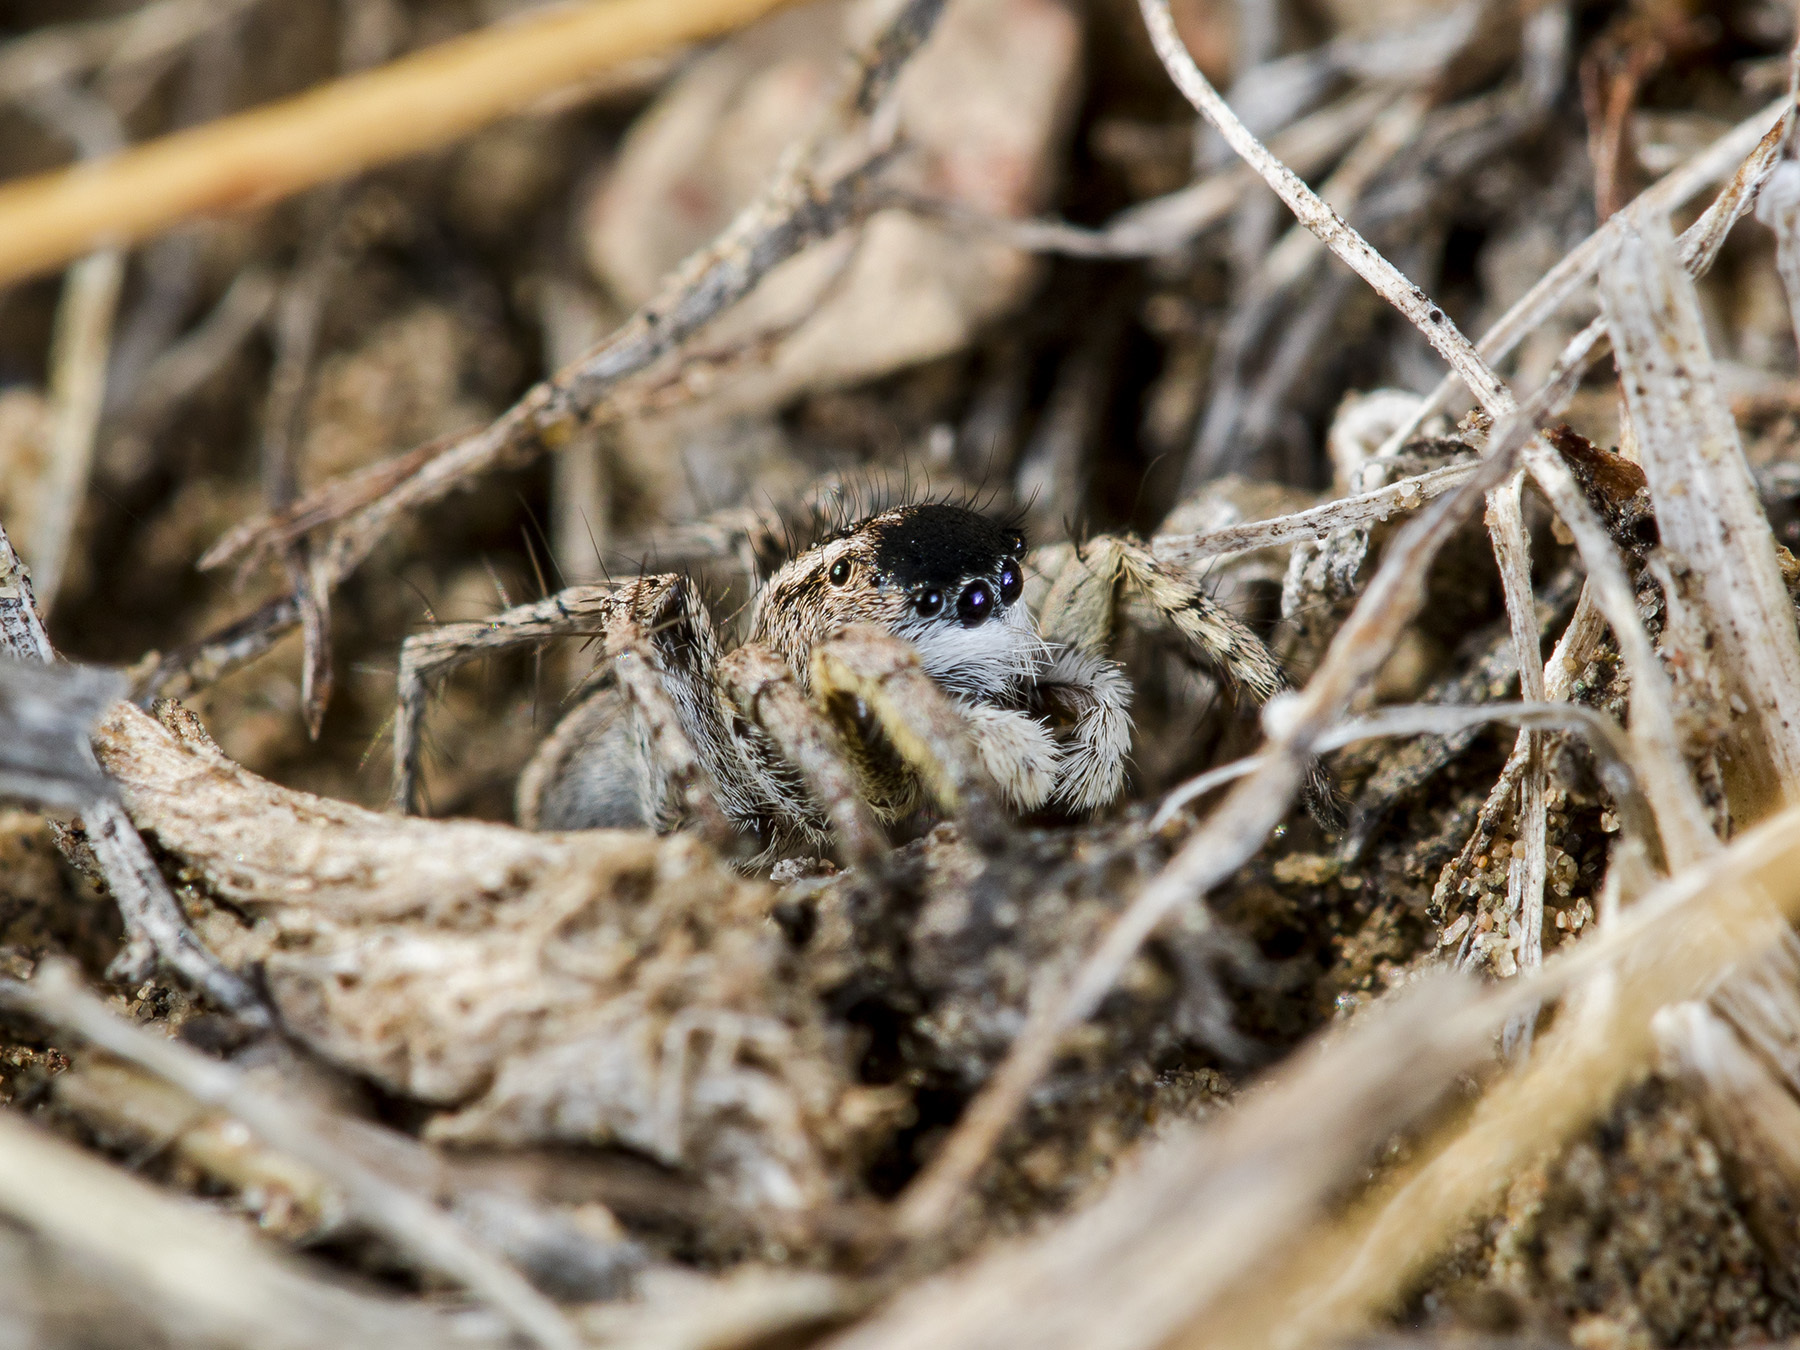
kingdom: Animalia
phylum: Arthropoda
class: Arachnida
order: Araneae
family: Salticidae
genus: Aelurillus
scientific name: Aelurillus m-nigrum
